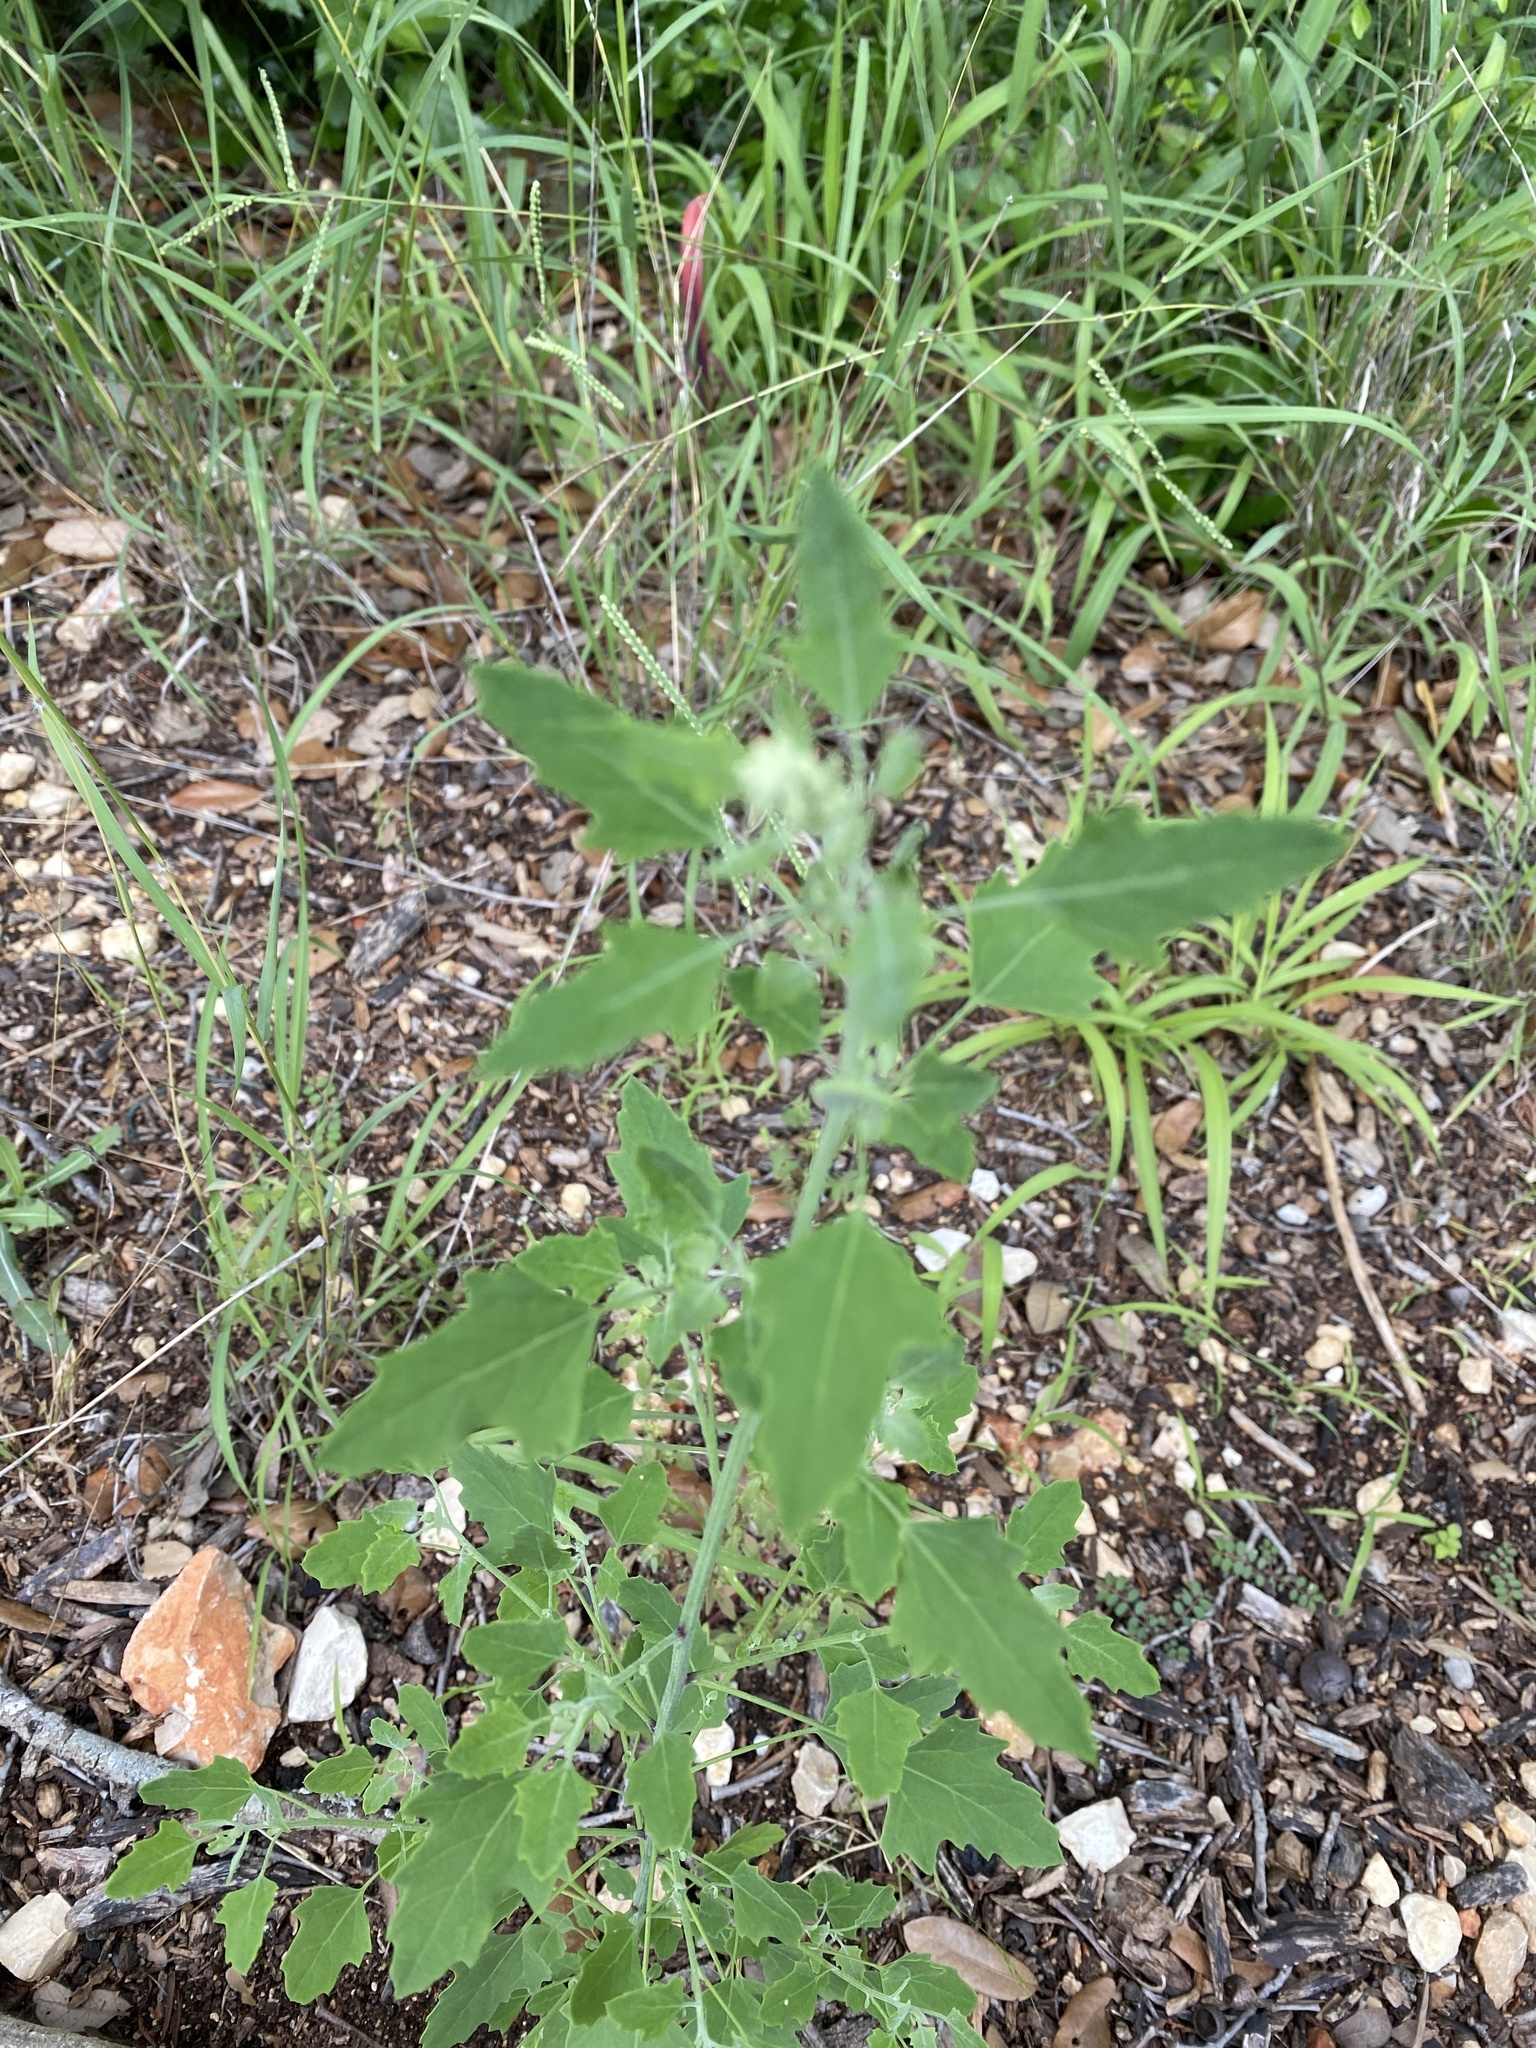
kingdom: Plantae
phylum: Tracheophyta
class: Magnoliopsida
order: Caryophyllales
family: Amaranthaceae
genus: Chenopodium
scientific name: Chenopodium album
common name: Fat-hen
